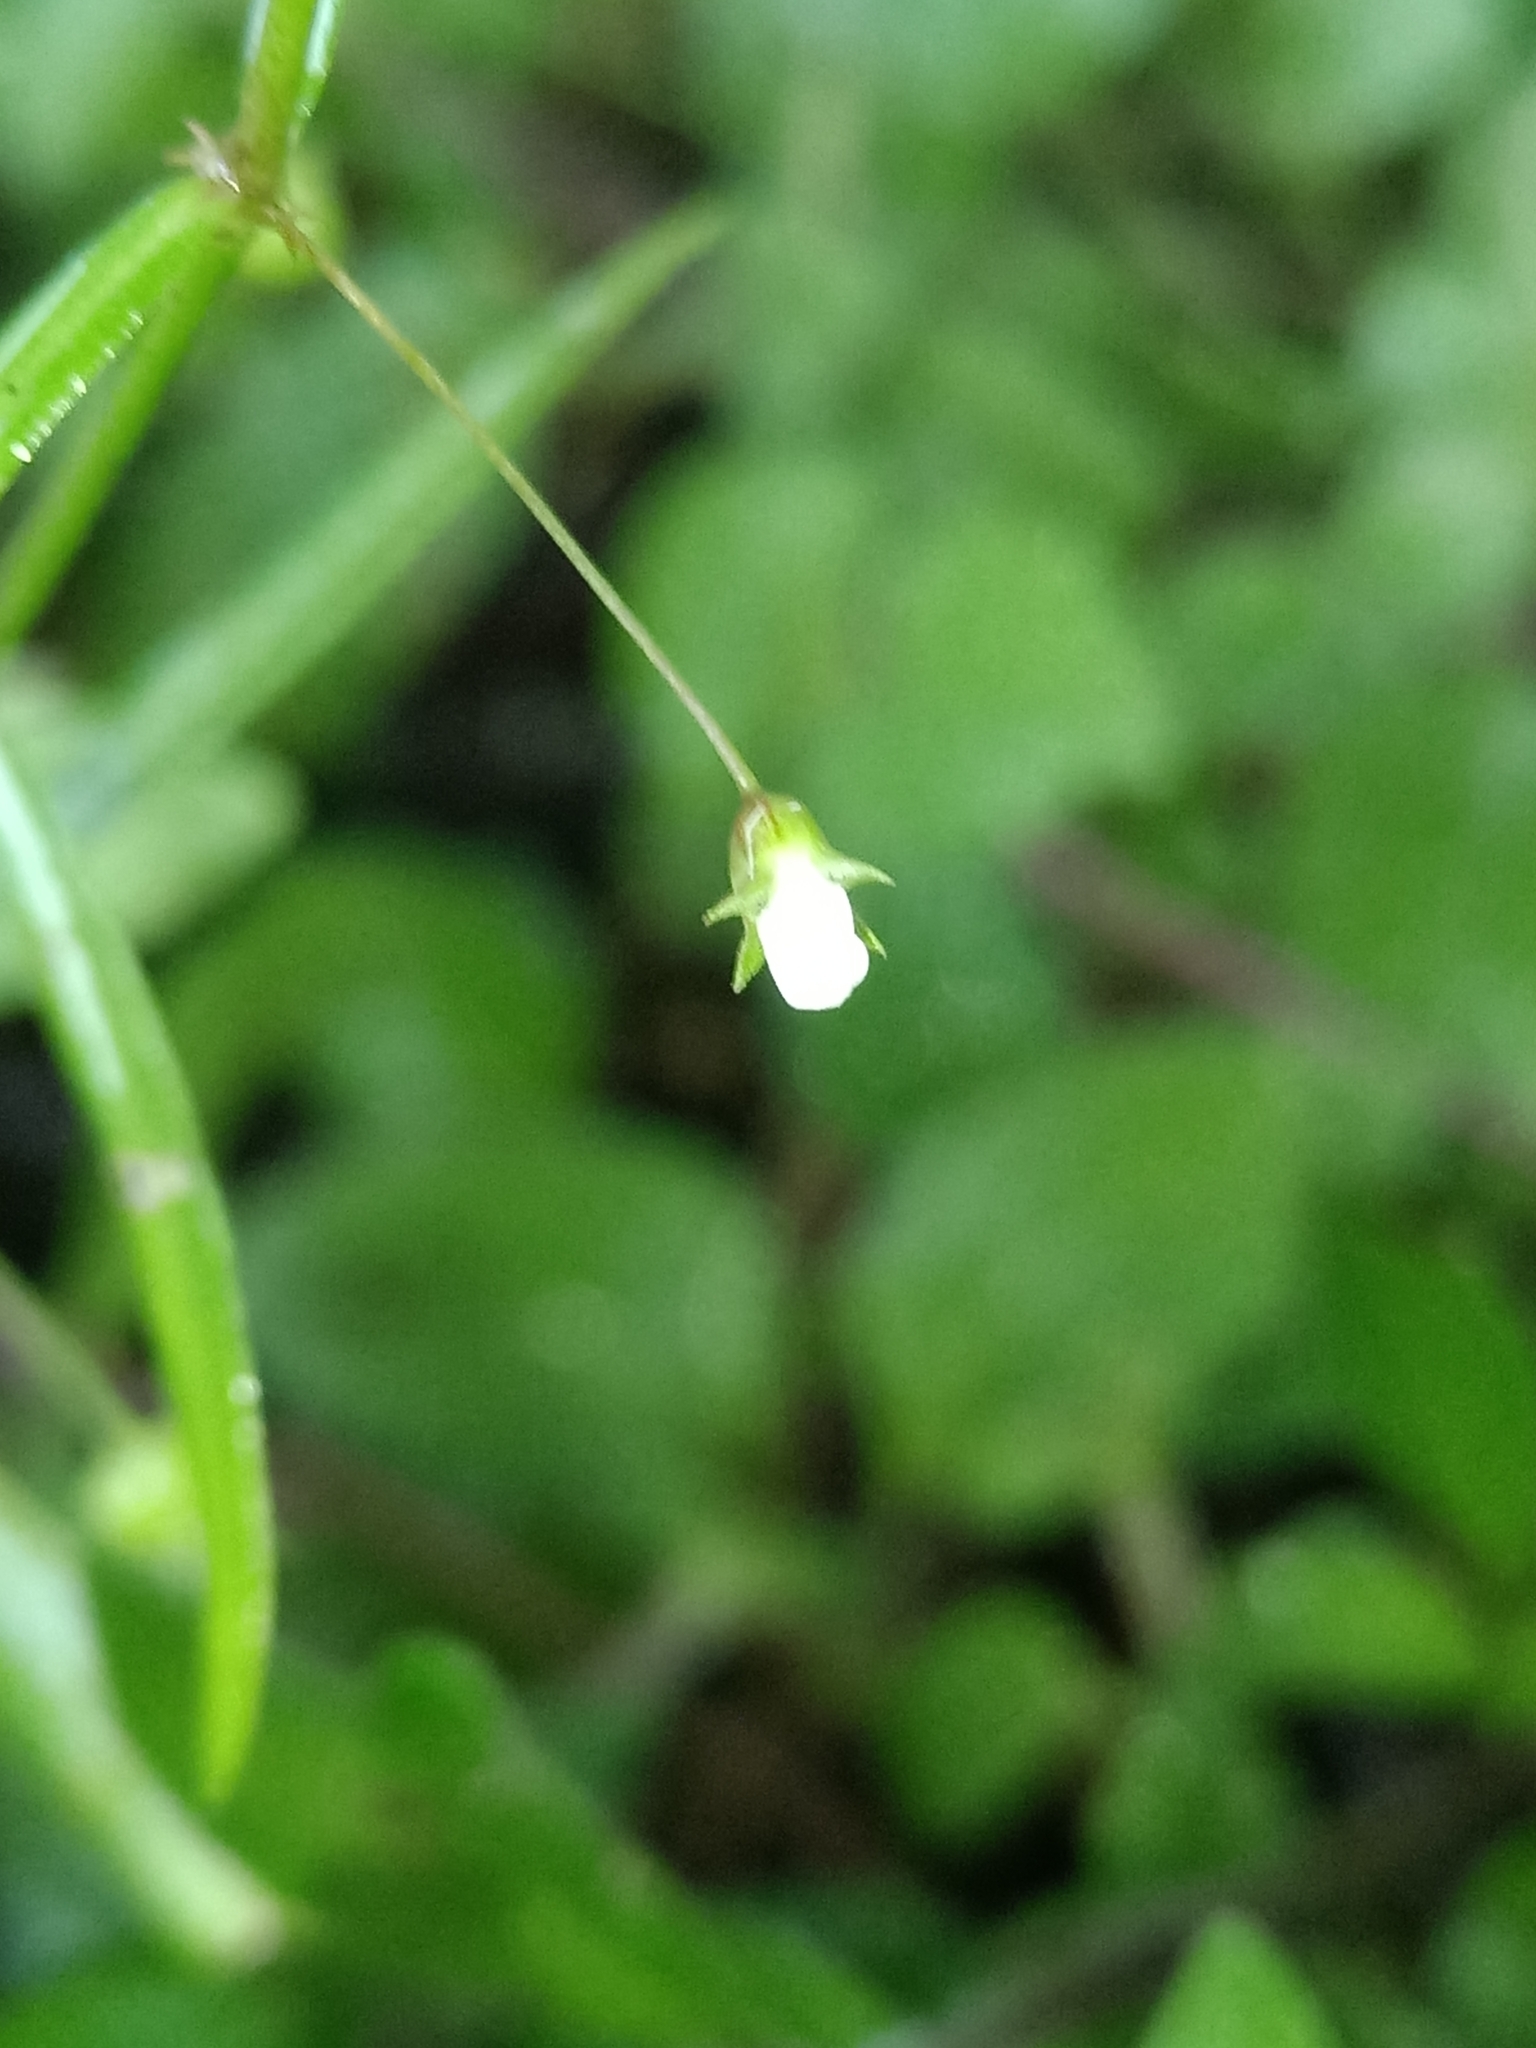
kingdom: Plantae
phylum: Tracheophyta
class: Magnoliopsida
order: Gentianales
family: Rubiaceae
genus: Oldenlandia
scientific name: Oldenlandia lancifolia
